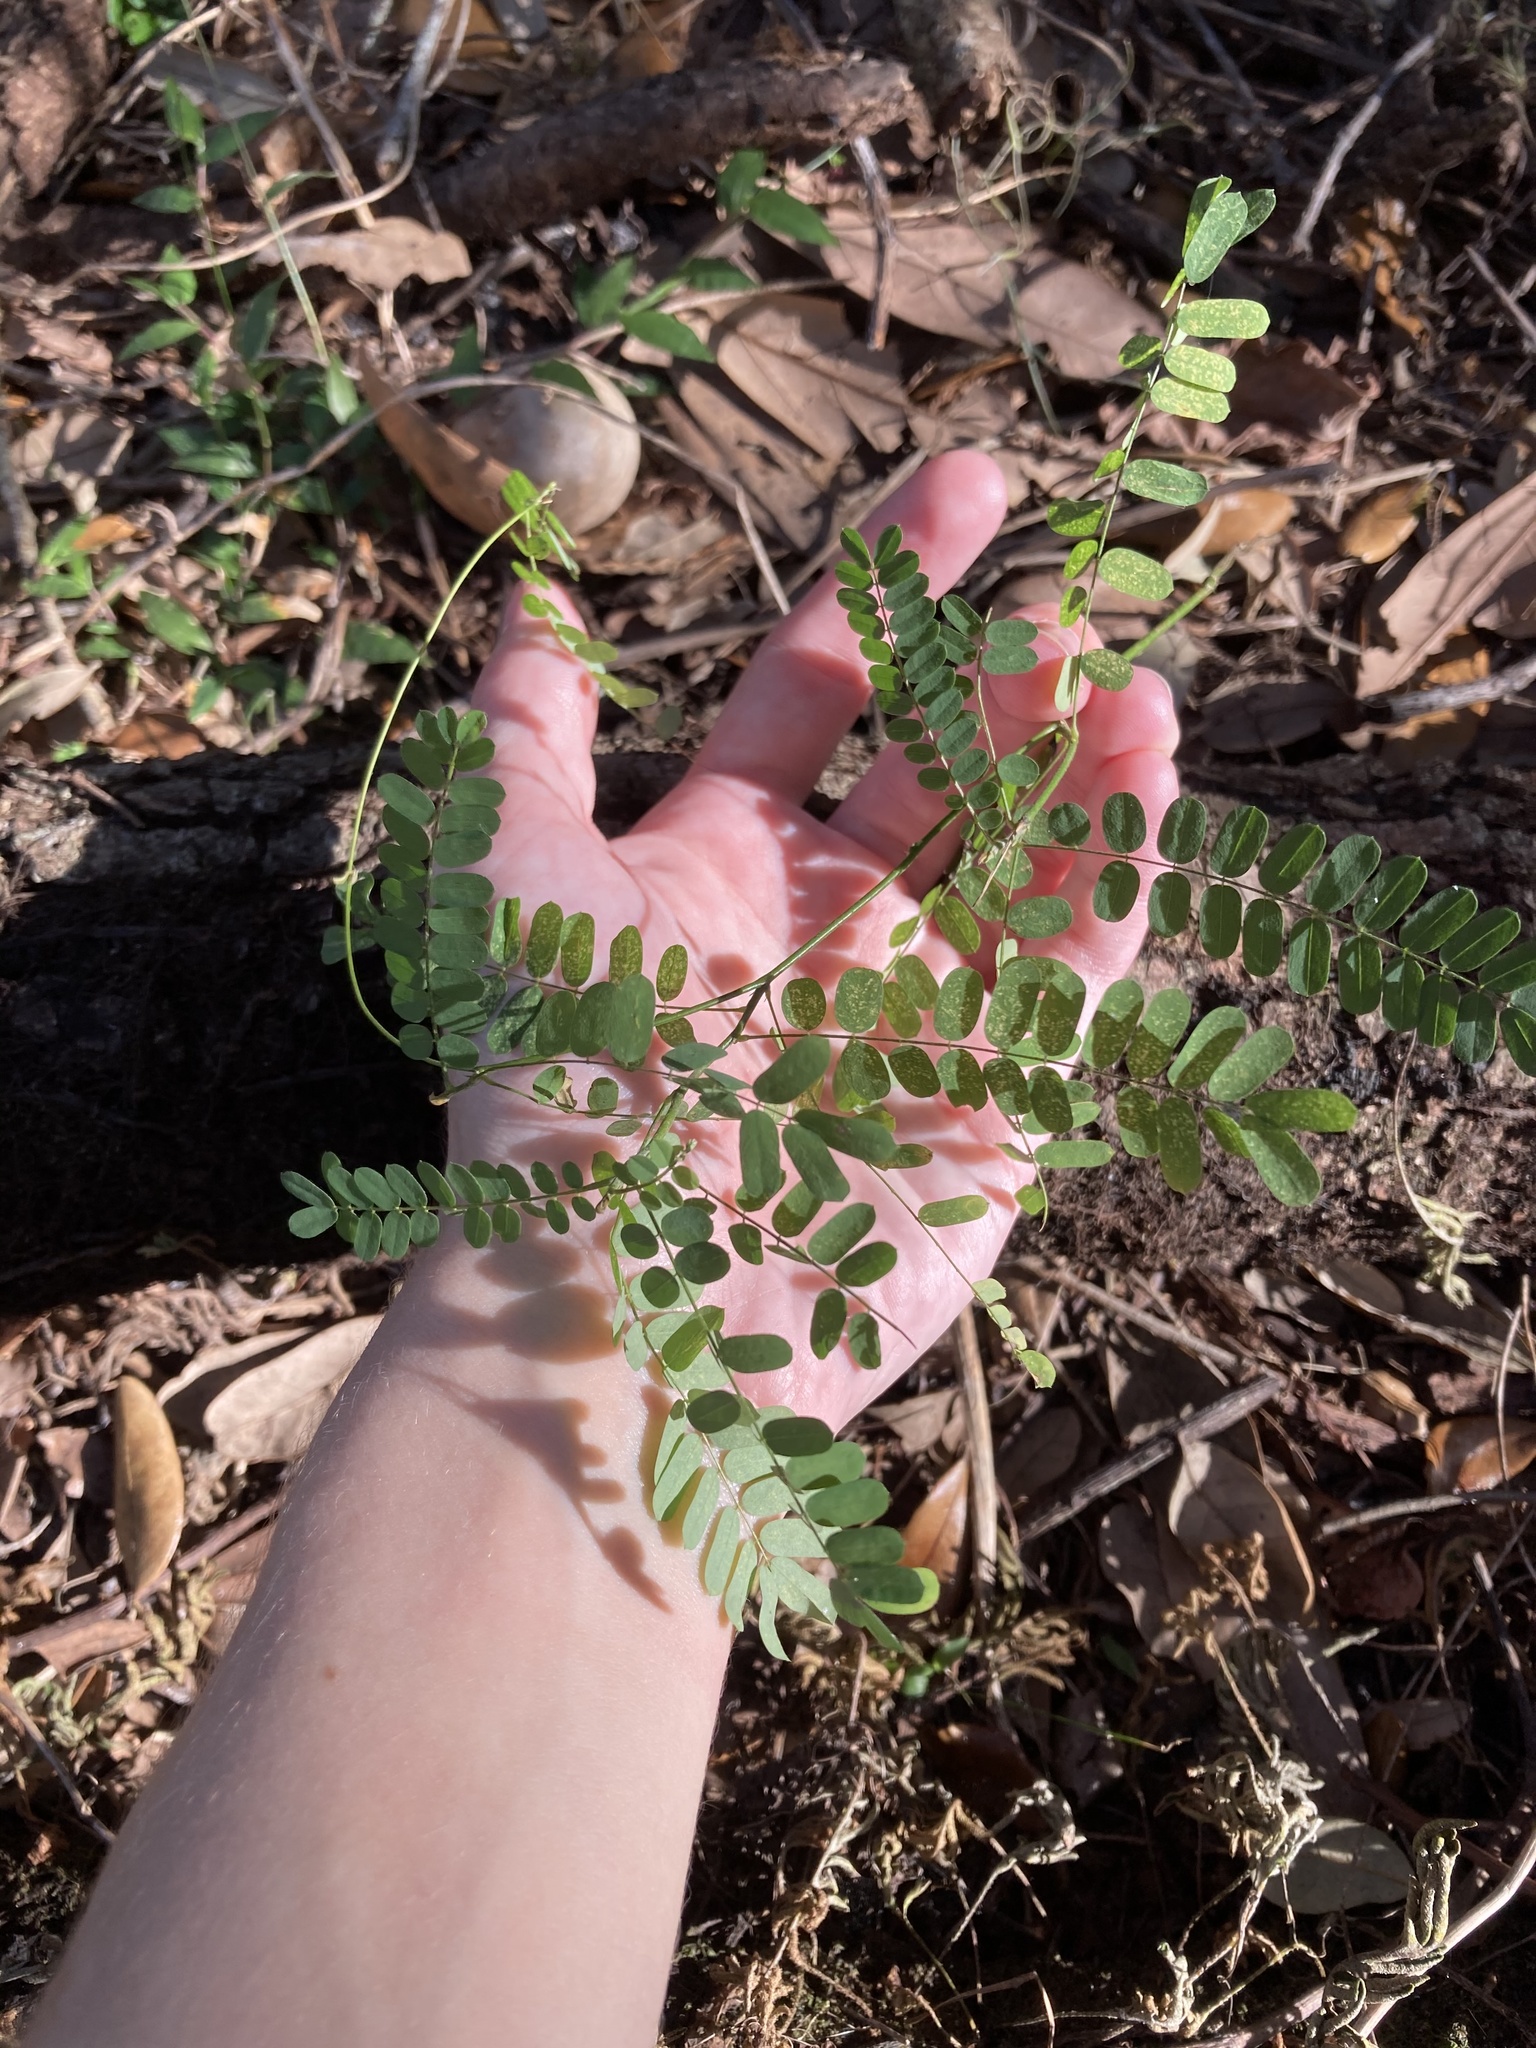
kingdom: Plantae
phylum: Tracheophyta
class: Magnoliopsida
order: Fabales
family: Fabaceae
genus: Abrus
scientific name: Abrus precatorius
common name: Rosarypea
